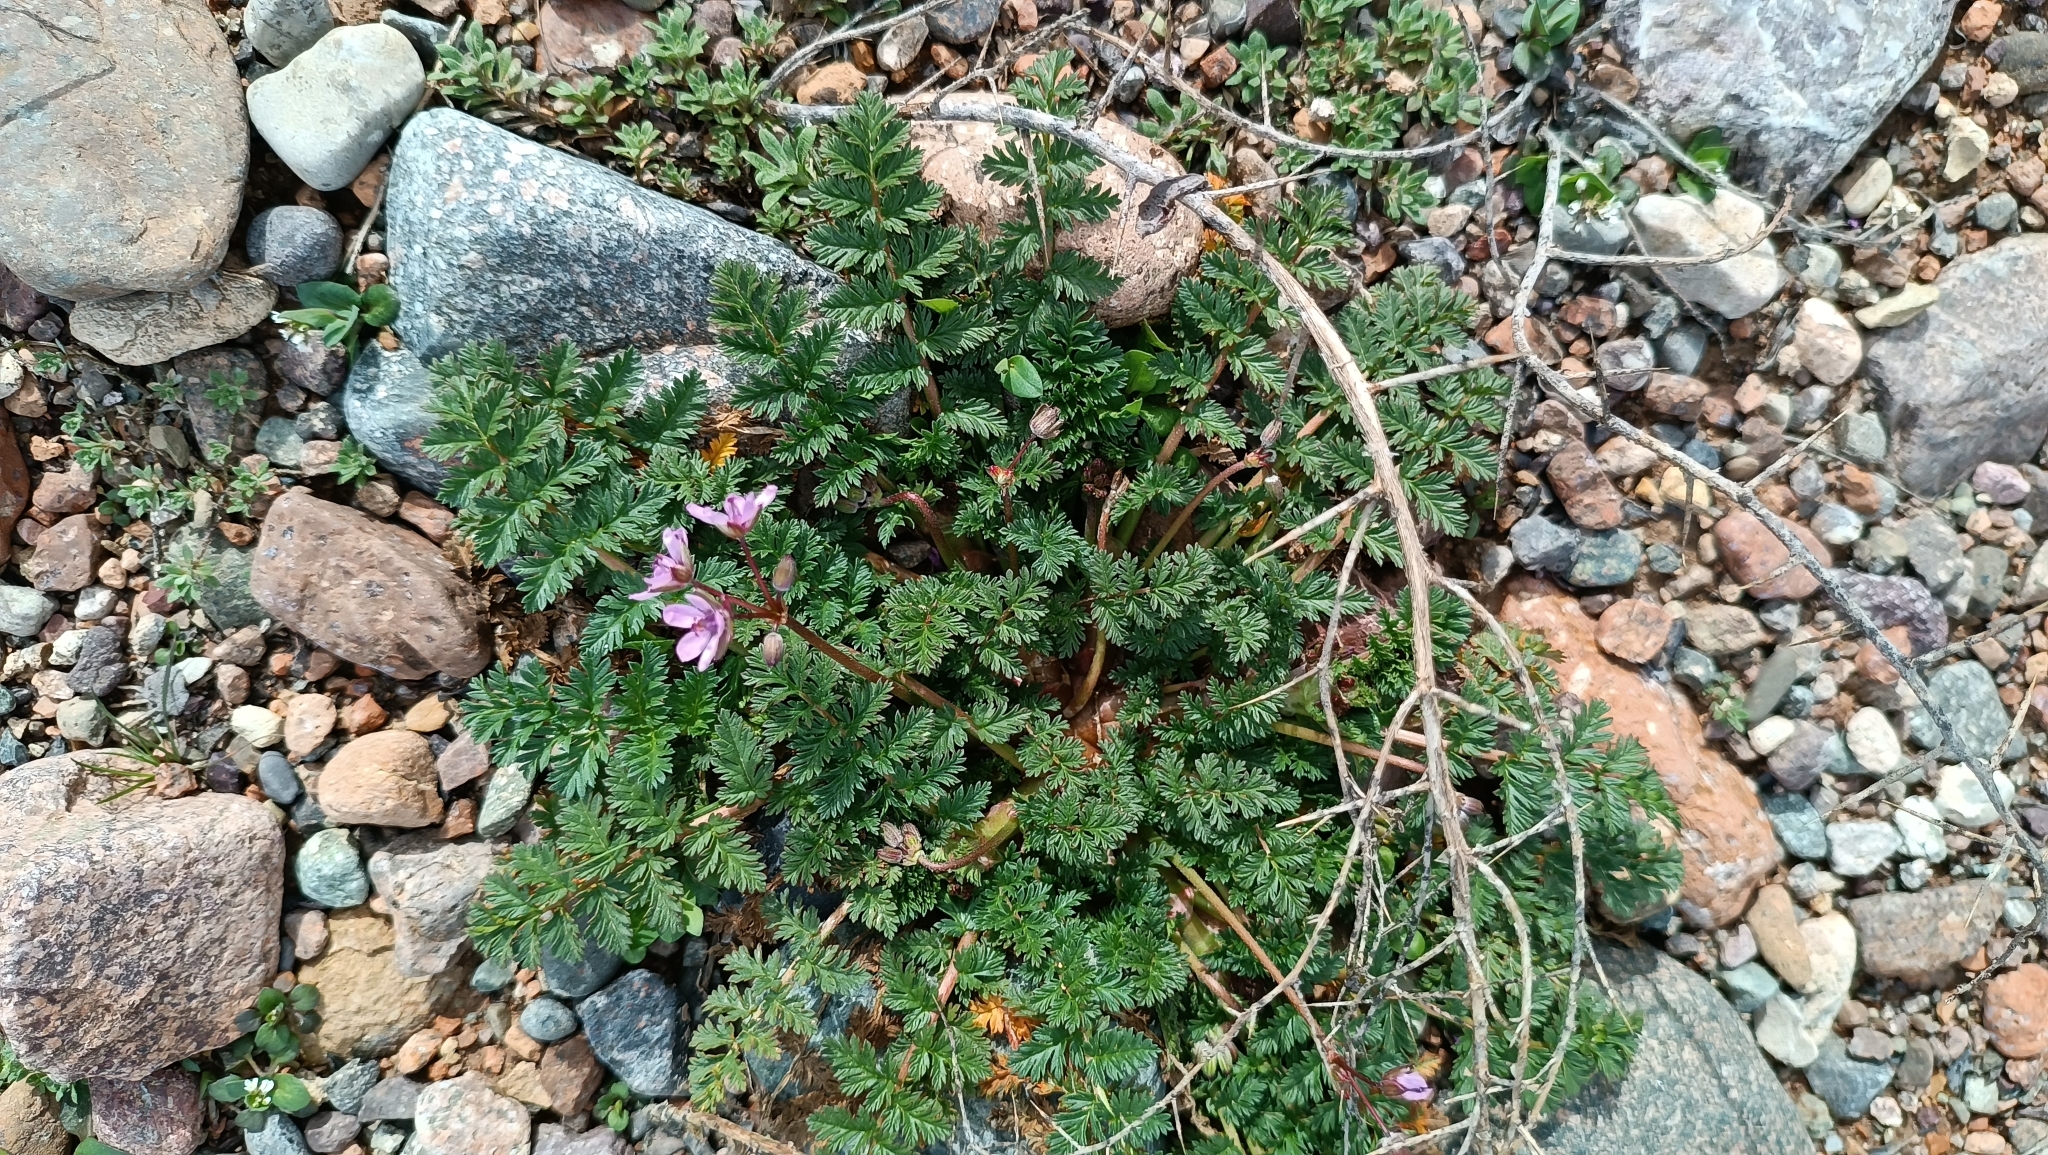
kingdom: Plantae
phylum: Tracheophyta
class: Magnoliopsida
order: Geraniales
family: Geraniaceae
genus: Erodium
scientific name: Erodium cicutarium
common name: Common stork's-bill
